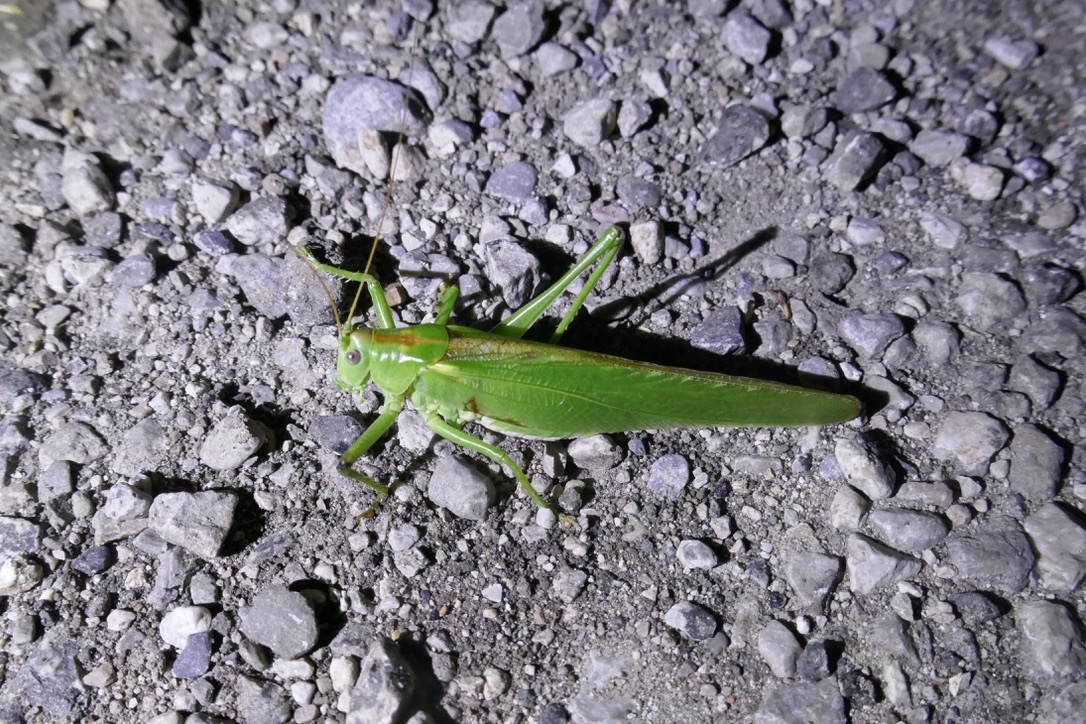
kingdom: Animalia
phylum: Arthropoda
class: Insecta
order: Orthoptera
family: Tettigoniidae
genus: Tettigonia
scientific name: Tettigonia viridissima
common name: Great green bush-cricket
